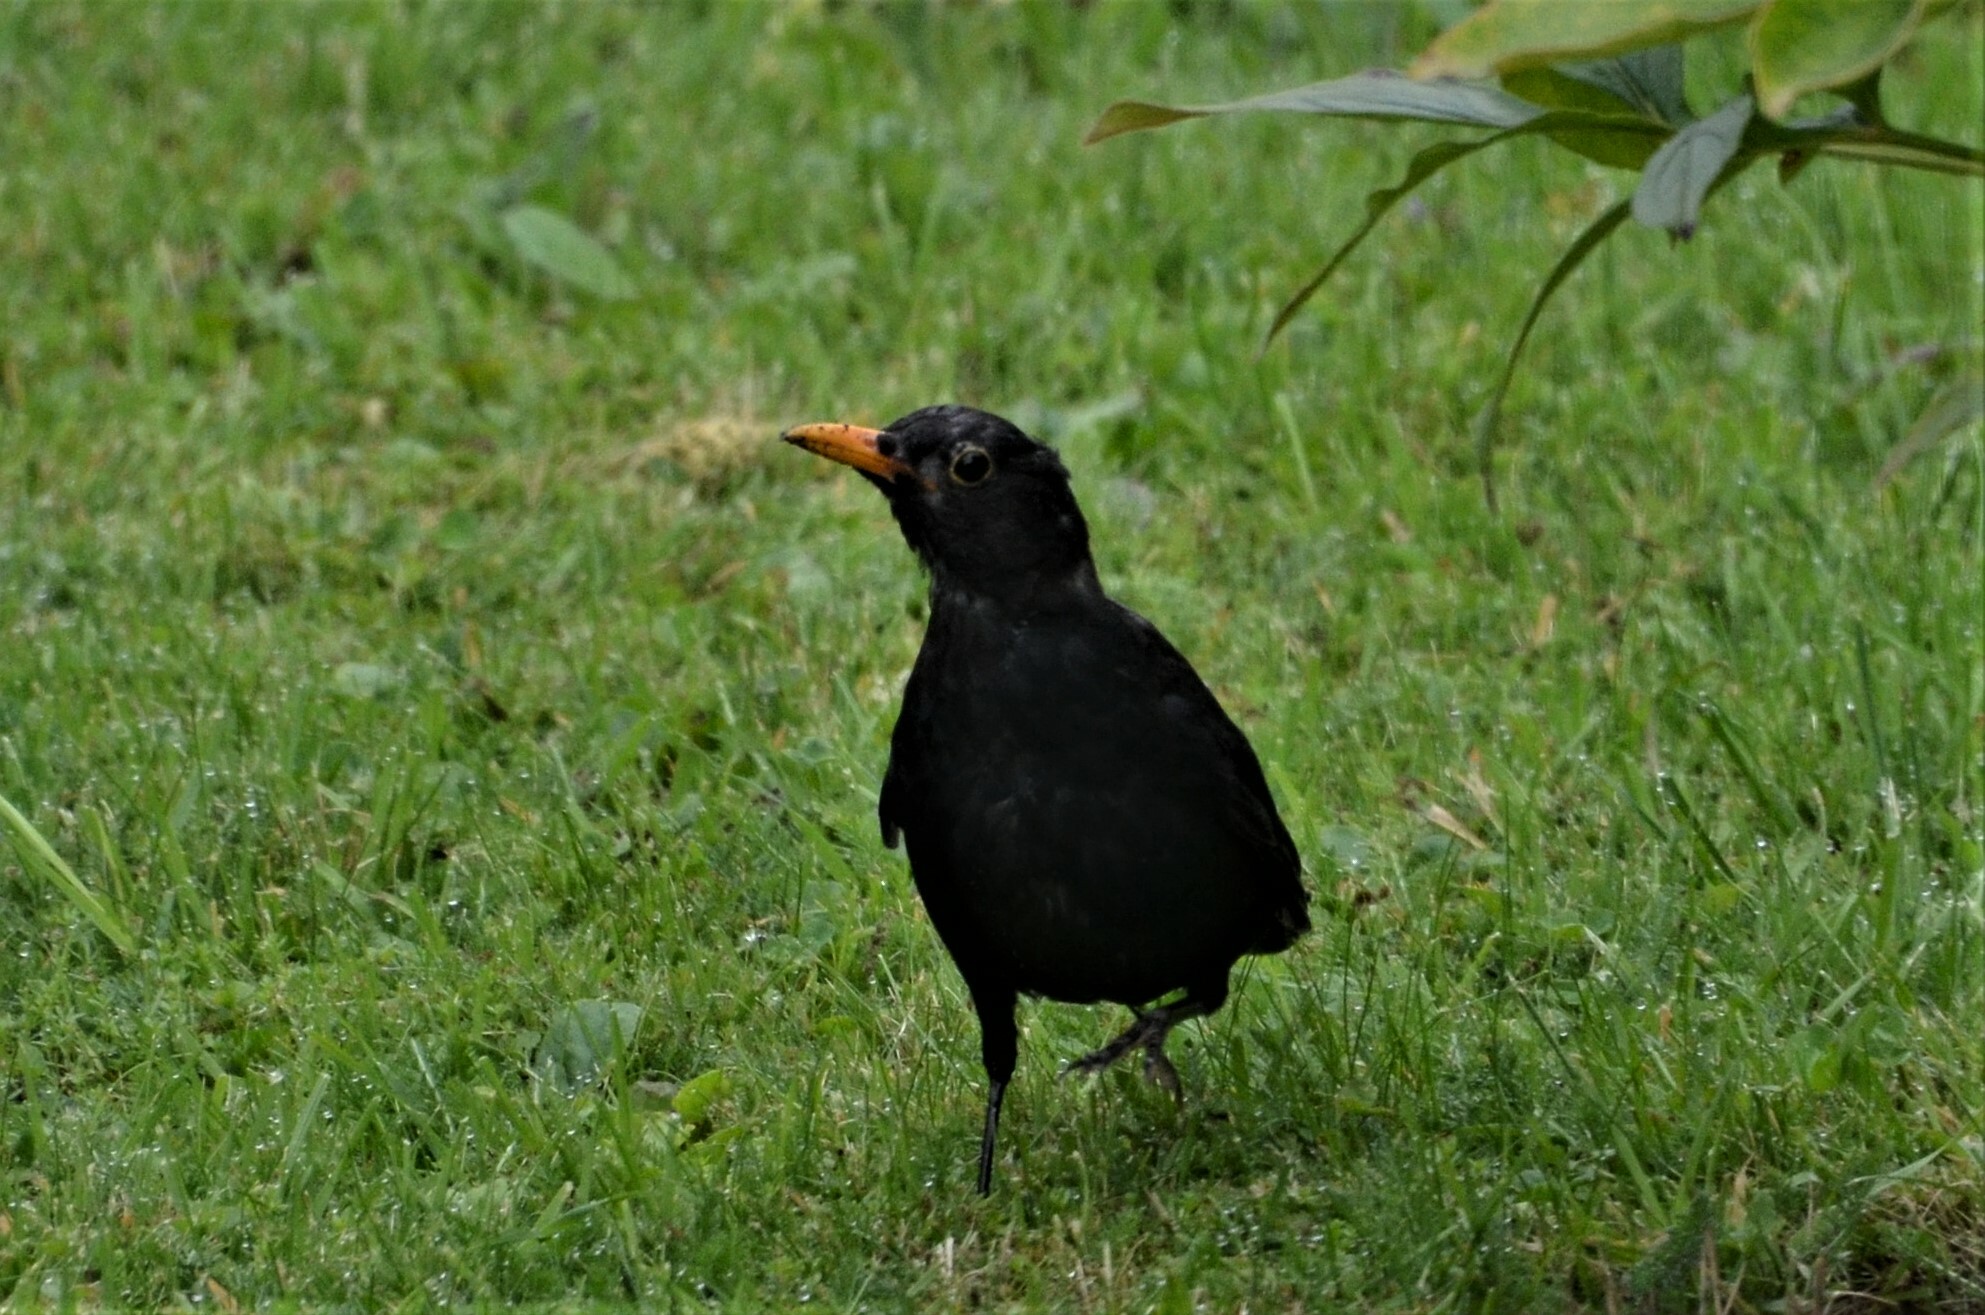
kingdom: Animalia
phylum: Chordata
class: Aves
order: Passeriformes
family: Turdidae
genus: Turdus
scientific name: Turdus merula
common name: Common blackbird
